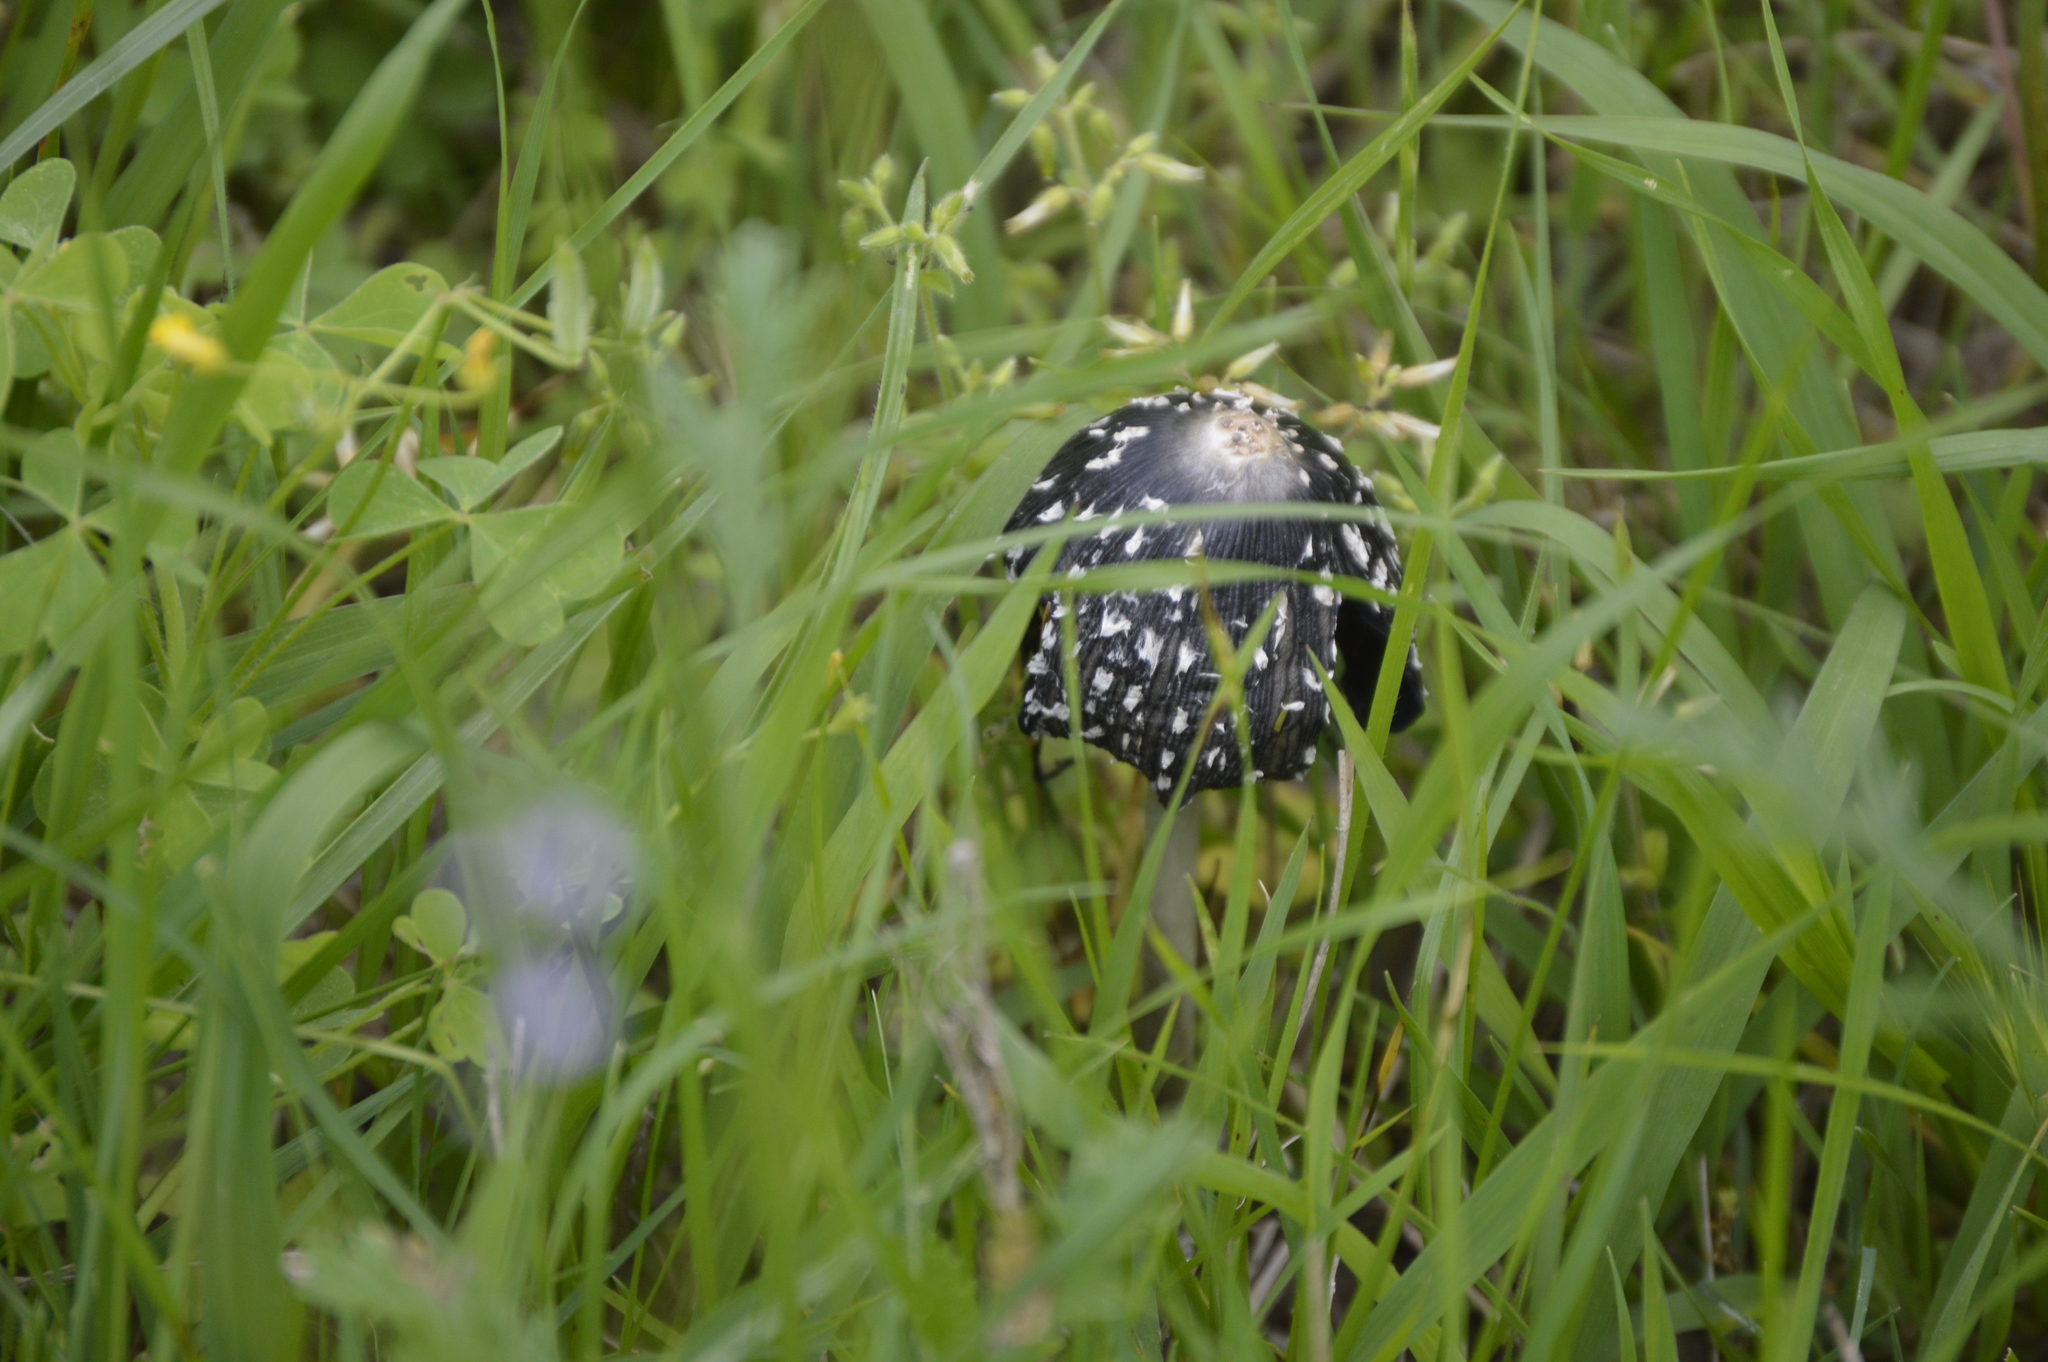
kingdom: Fungi
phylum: Basidiomycota
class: Agaricomycetes
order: Agaricales
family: Psathyrellaceae
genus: Coprinopsis
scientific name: Coprinopsis picacea
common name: Magpie inkcap
